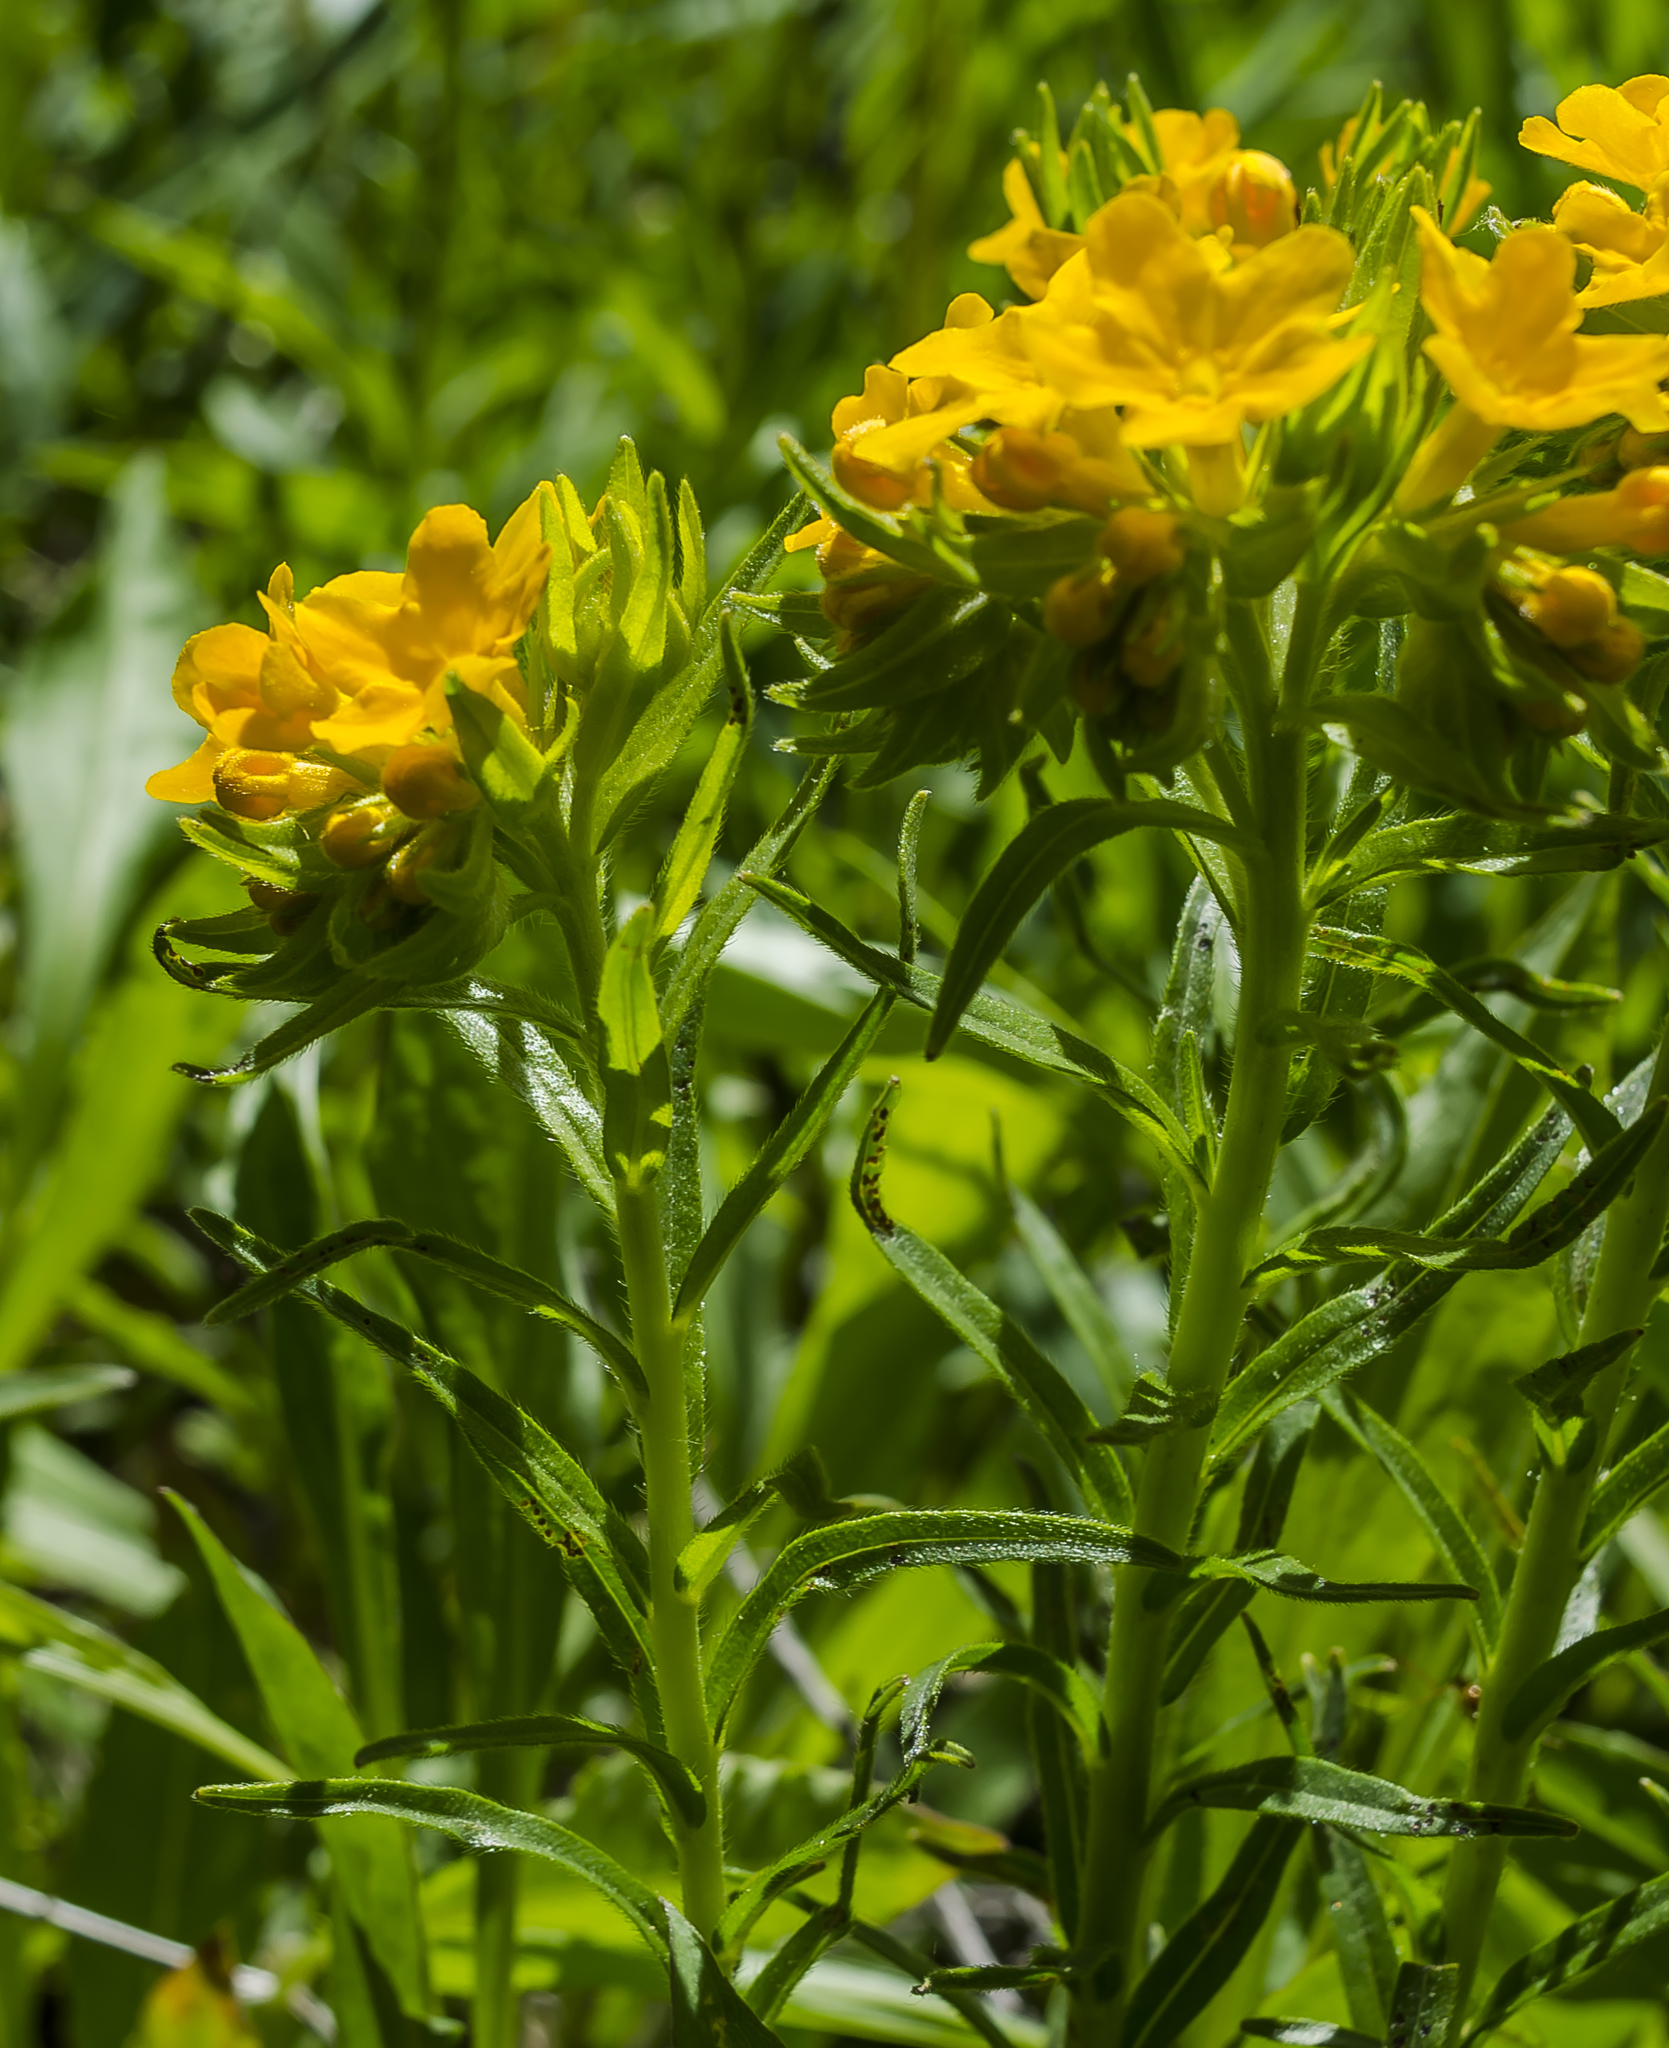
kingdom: Plantae
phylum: Tracheophyta
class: Magnoliopsida
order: Boraginales
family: Boraginaceae
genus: Lithospermum
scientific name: Lithospermum canescens
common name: Hoary puccoon
